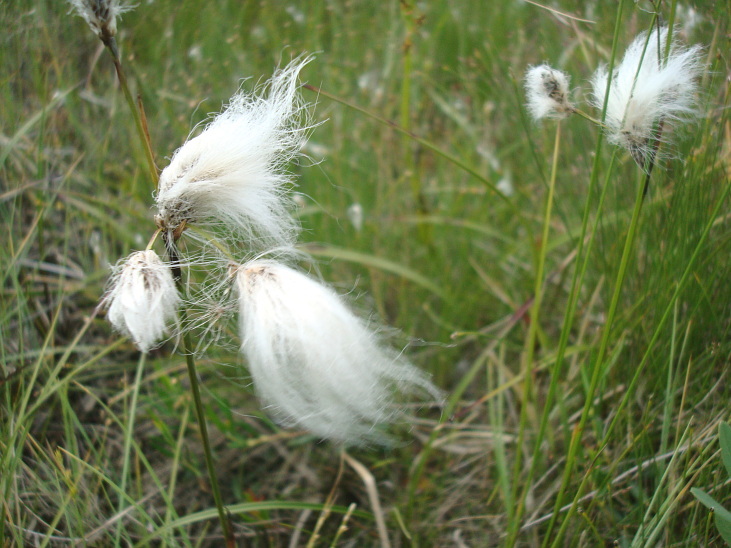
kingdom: Plantae
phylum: Tracheophyta
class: Liliopsida
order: Poales
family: Cyperaceae
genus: Eriophorum
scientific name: Eriophorum angustifolium
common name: Common cottongrass
